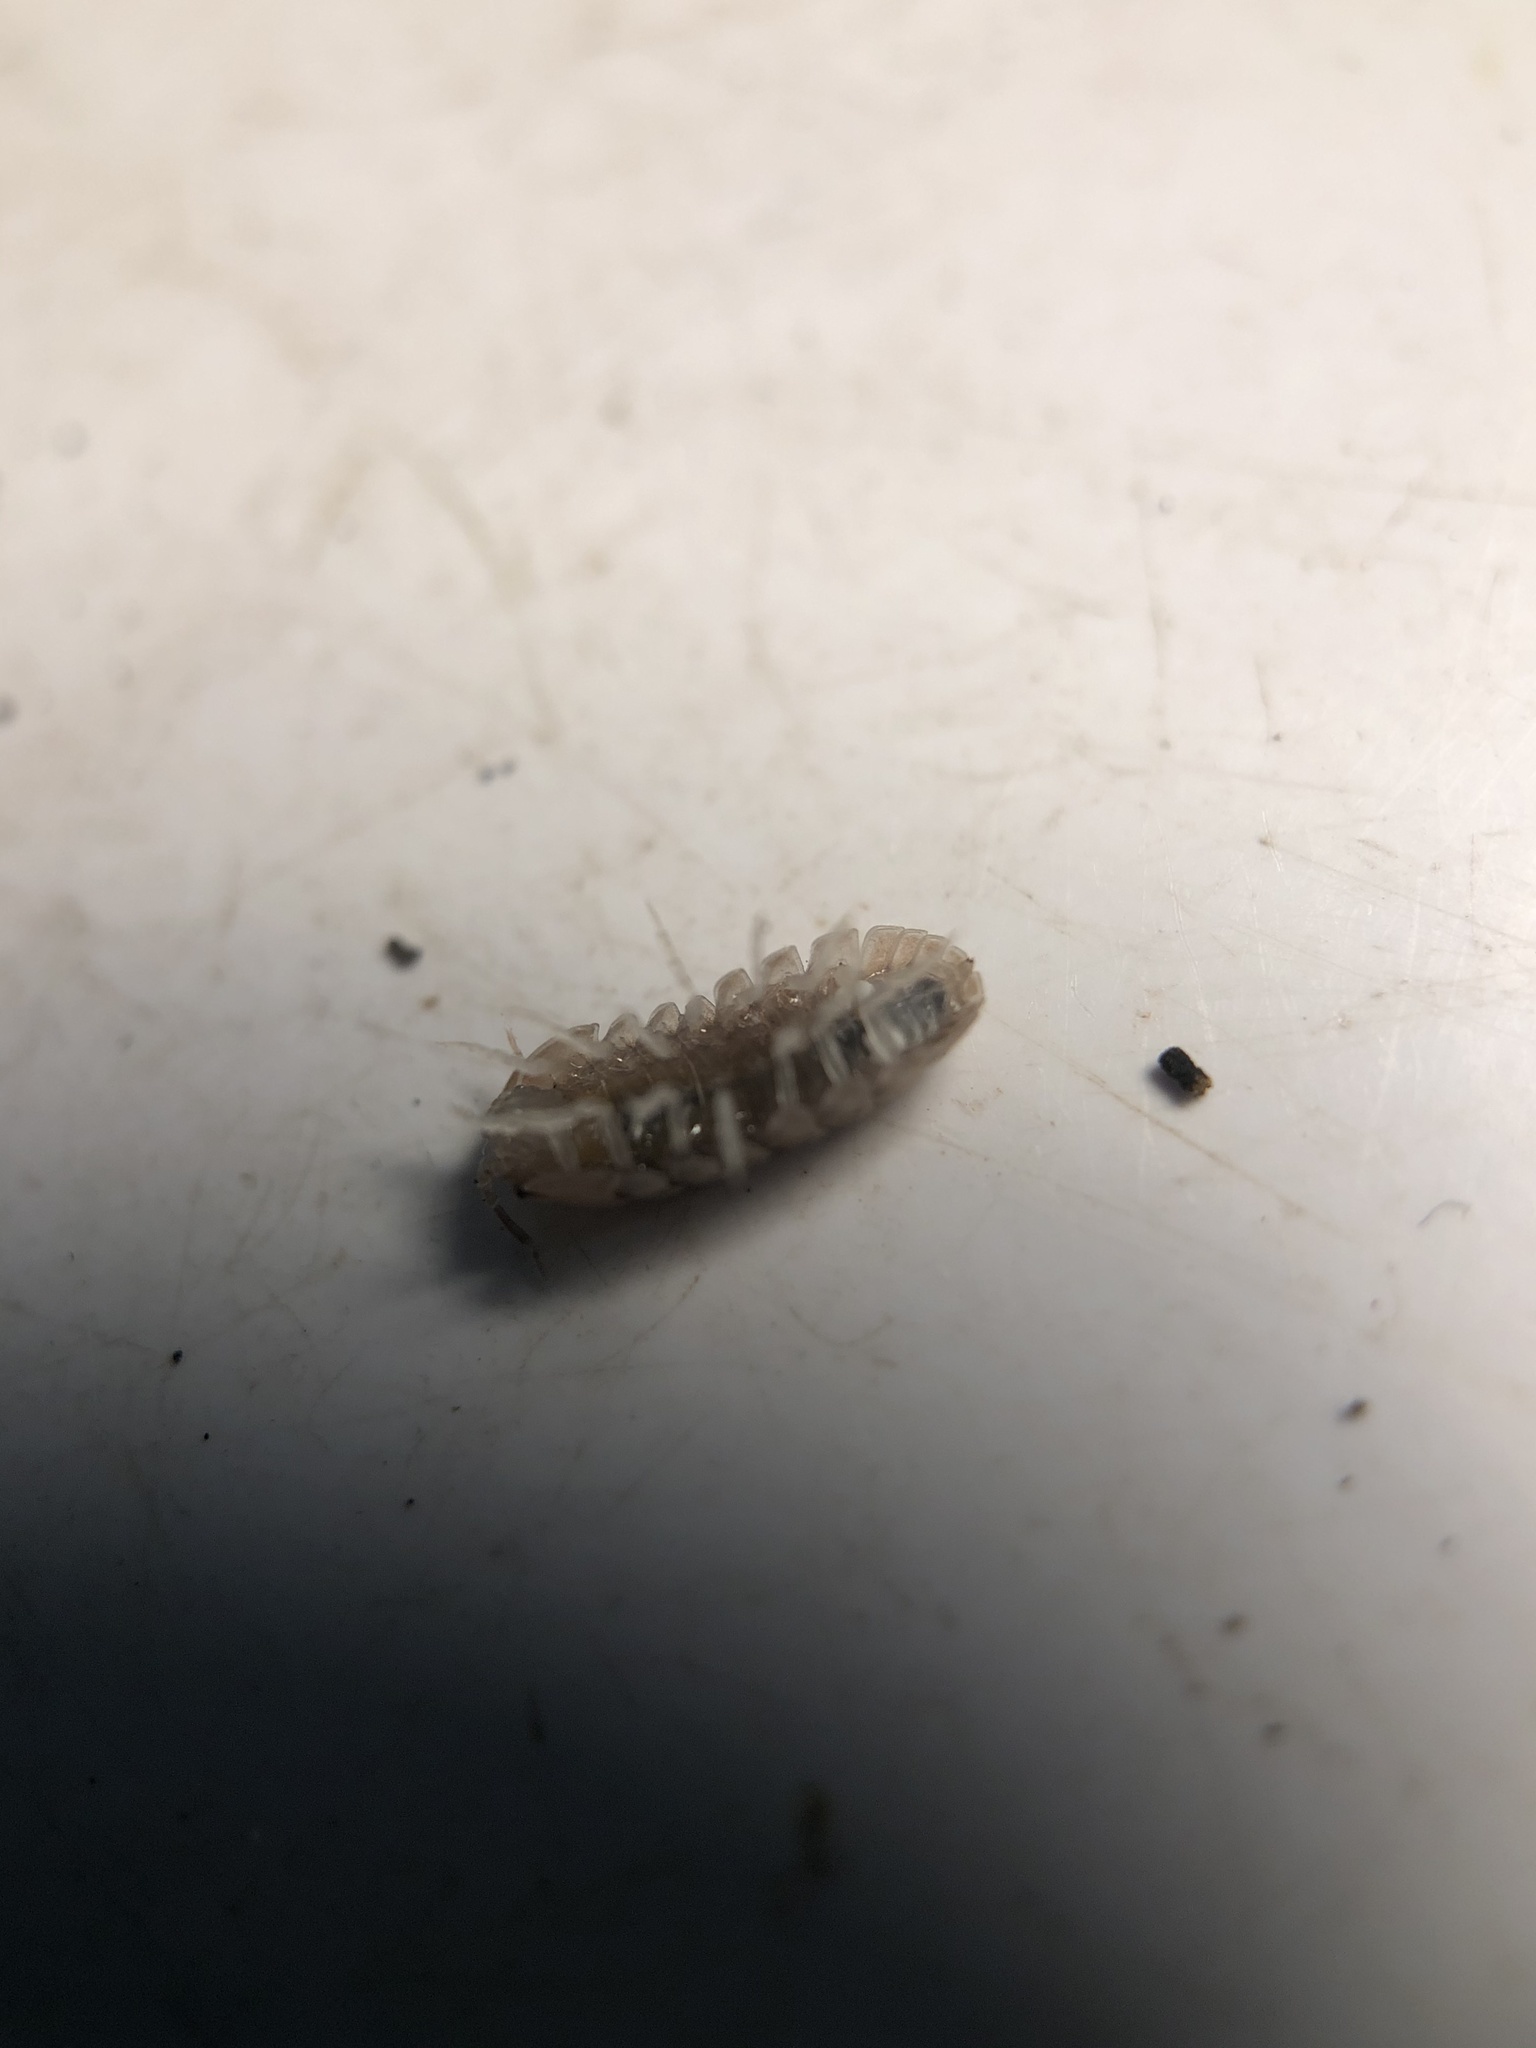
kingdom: Animalia
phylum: Arthropoda
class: Malacostraca
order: Isopoda
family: Armadillidiidae
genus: Eluma
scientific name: Eluma caelata
